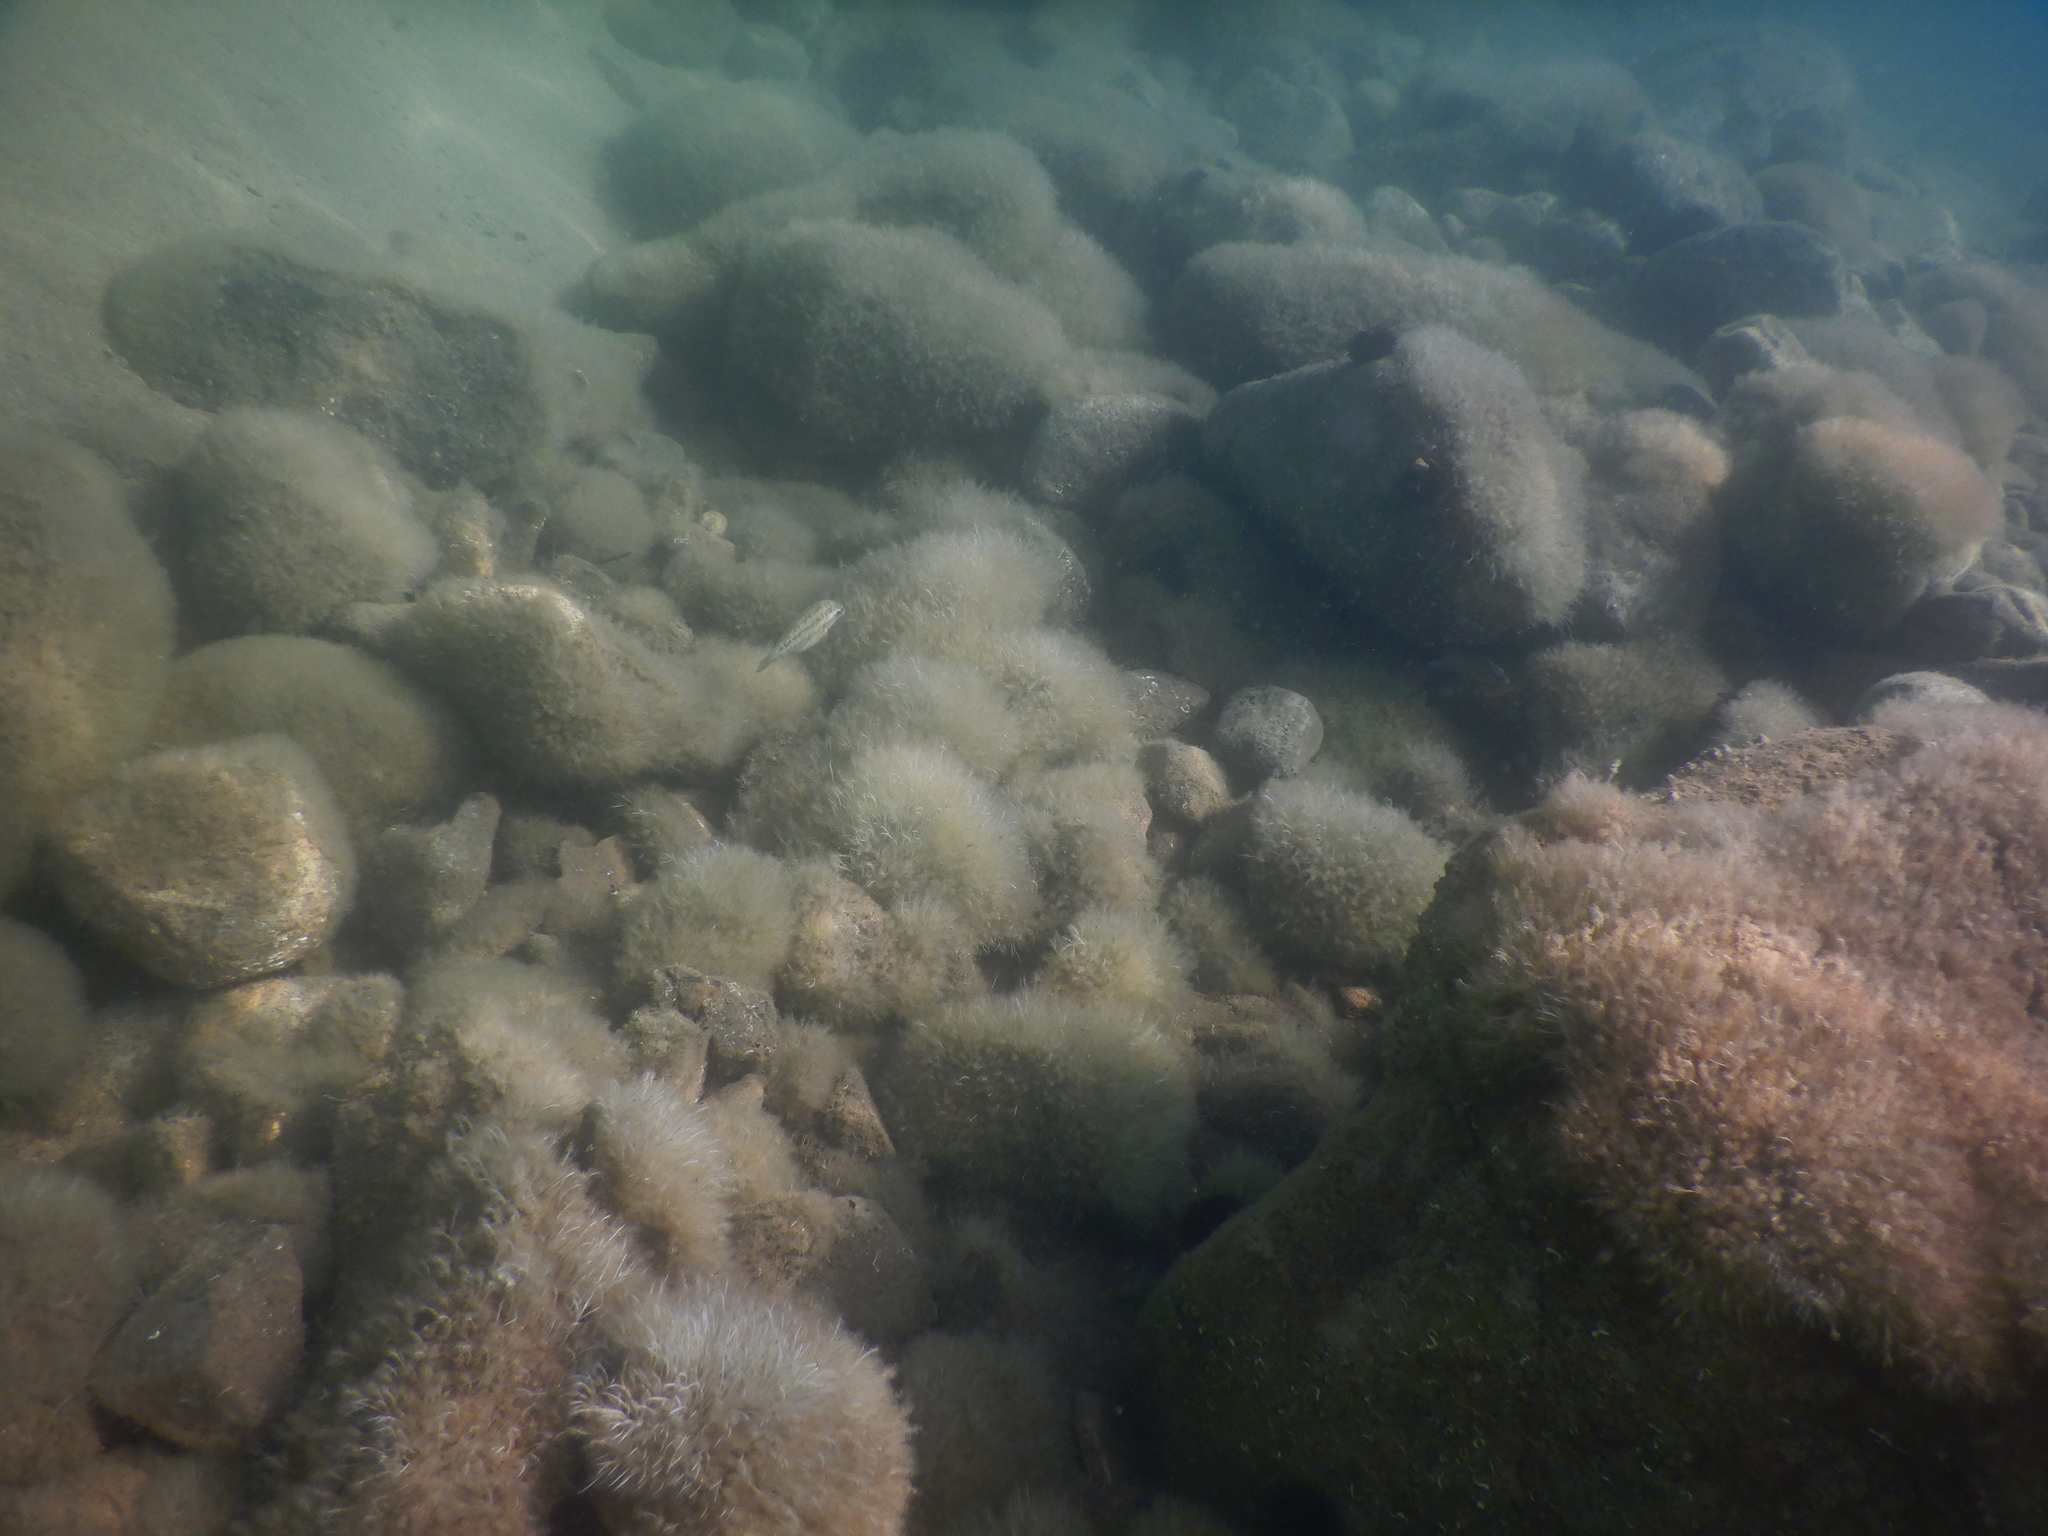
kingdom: Animalia
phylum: Chordata
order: Perciformes
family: Labridae
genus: Symphodus
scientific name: Symphodus
